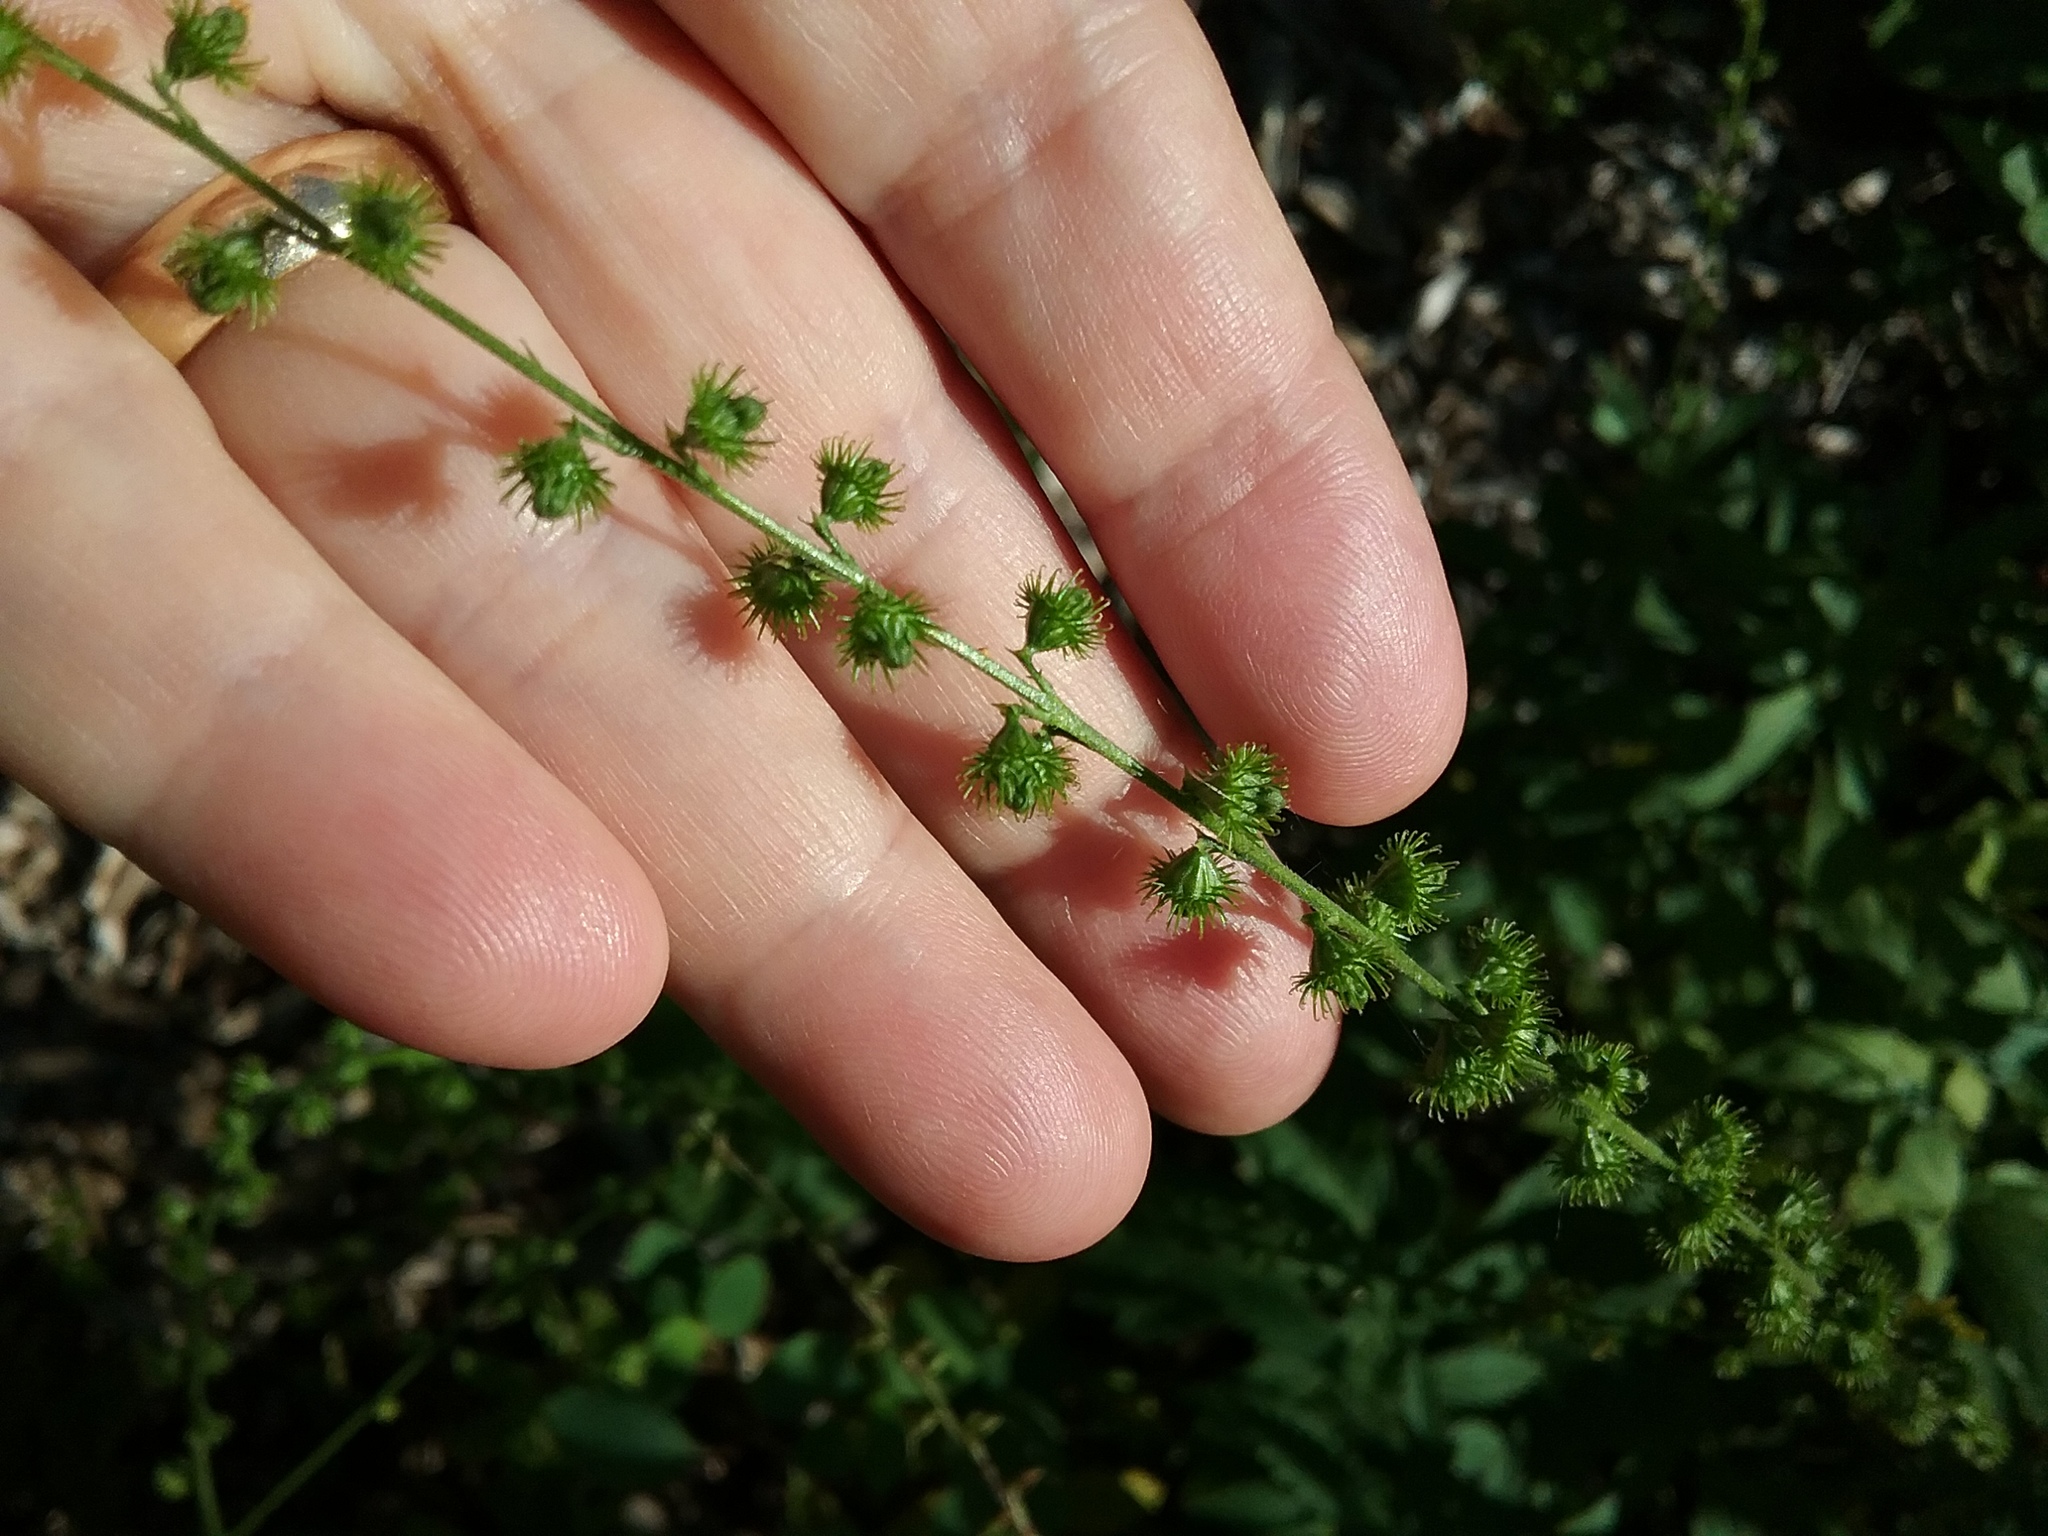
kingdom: Plantae
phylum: Tracheophyta
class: Magnoliopsida
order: Rosales
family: Rosaceae
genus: Agrimonia
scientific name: Agrimonia parviflora
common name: Harvest-lice
